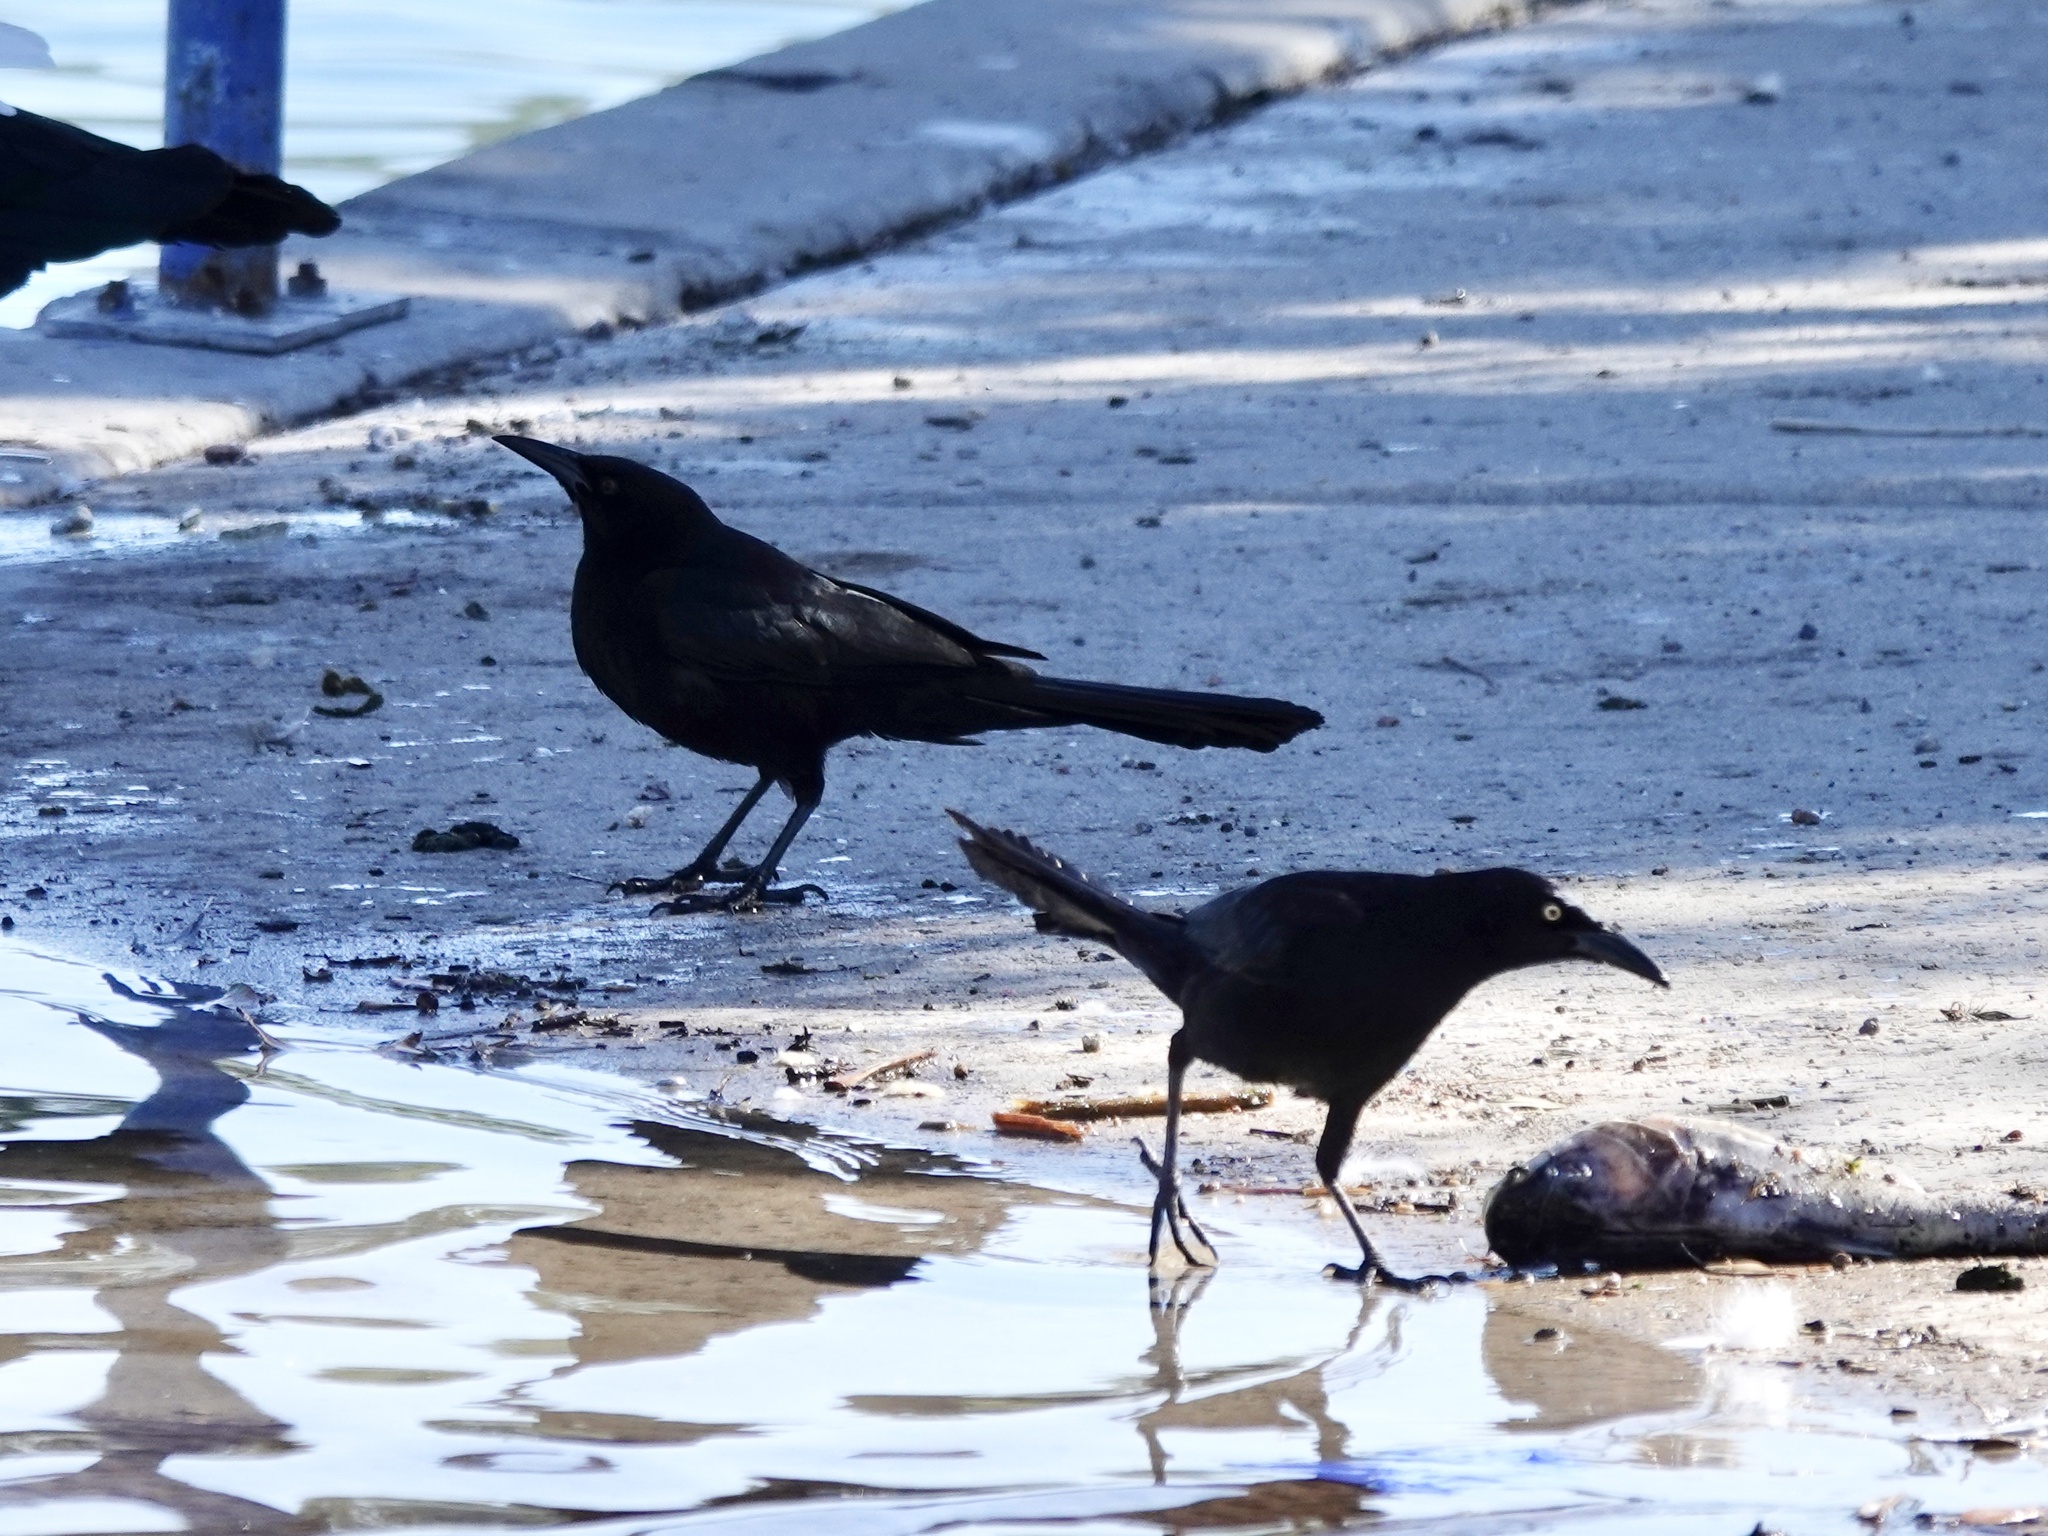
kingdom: Animalia
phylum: Chordata
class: Aves
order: Passeriformes
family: Icteridae
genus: Quiscalus
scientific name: Quiscalus mexicanus
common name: Great-tailed grackle
